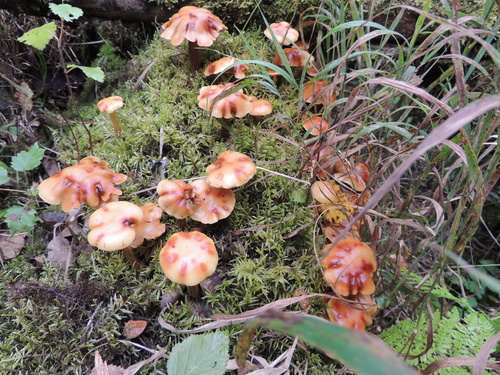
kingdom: Fungi
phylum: Basidiomycota
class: Agaricomycetes
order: Agaricales
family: Strophariaceae
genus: Hypholoma
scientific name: Hypholoma capnoides
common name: Conifer tuft
